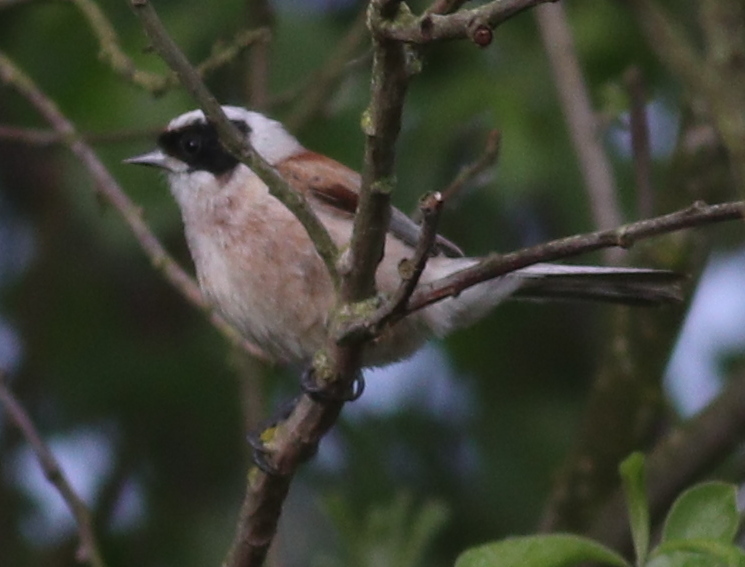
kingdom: Animalia
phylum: Chordata
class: Aves
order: Passeriformes
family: Remizidae
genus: Remiz
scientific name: Remiz pendulinus
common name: Eurasian penduline tit
